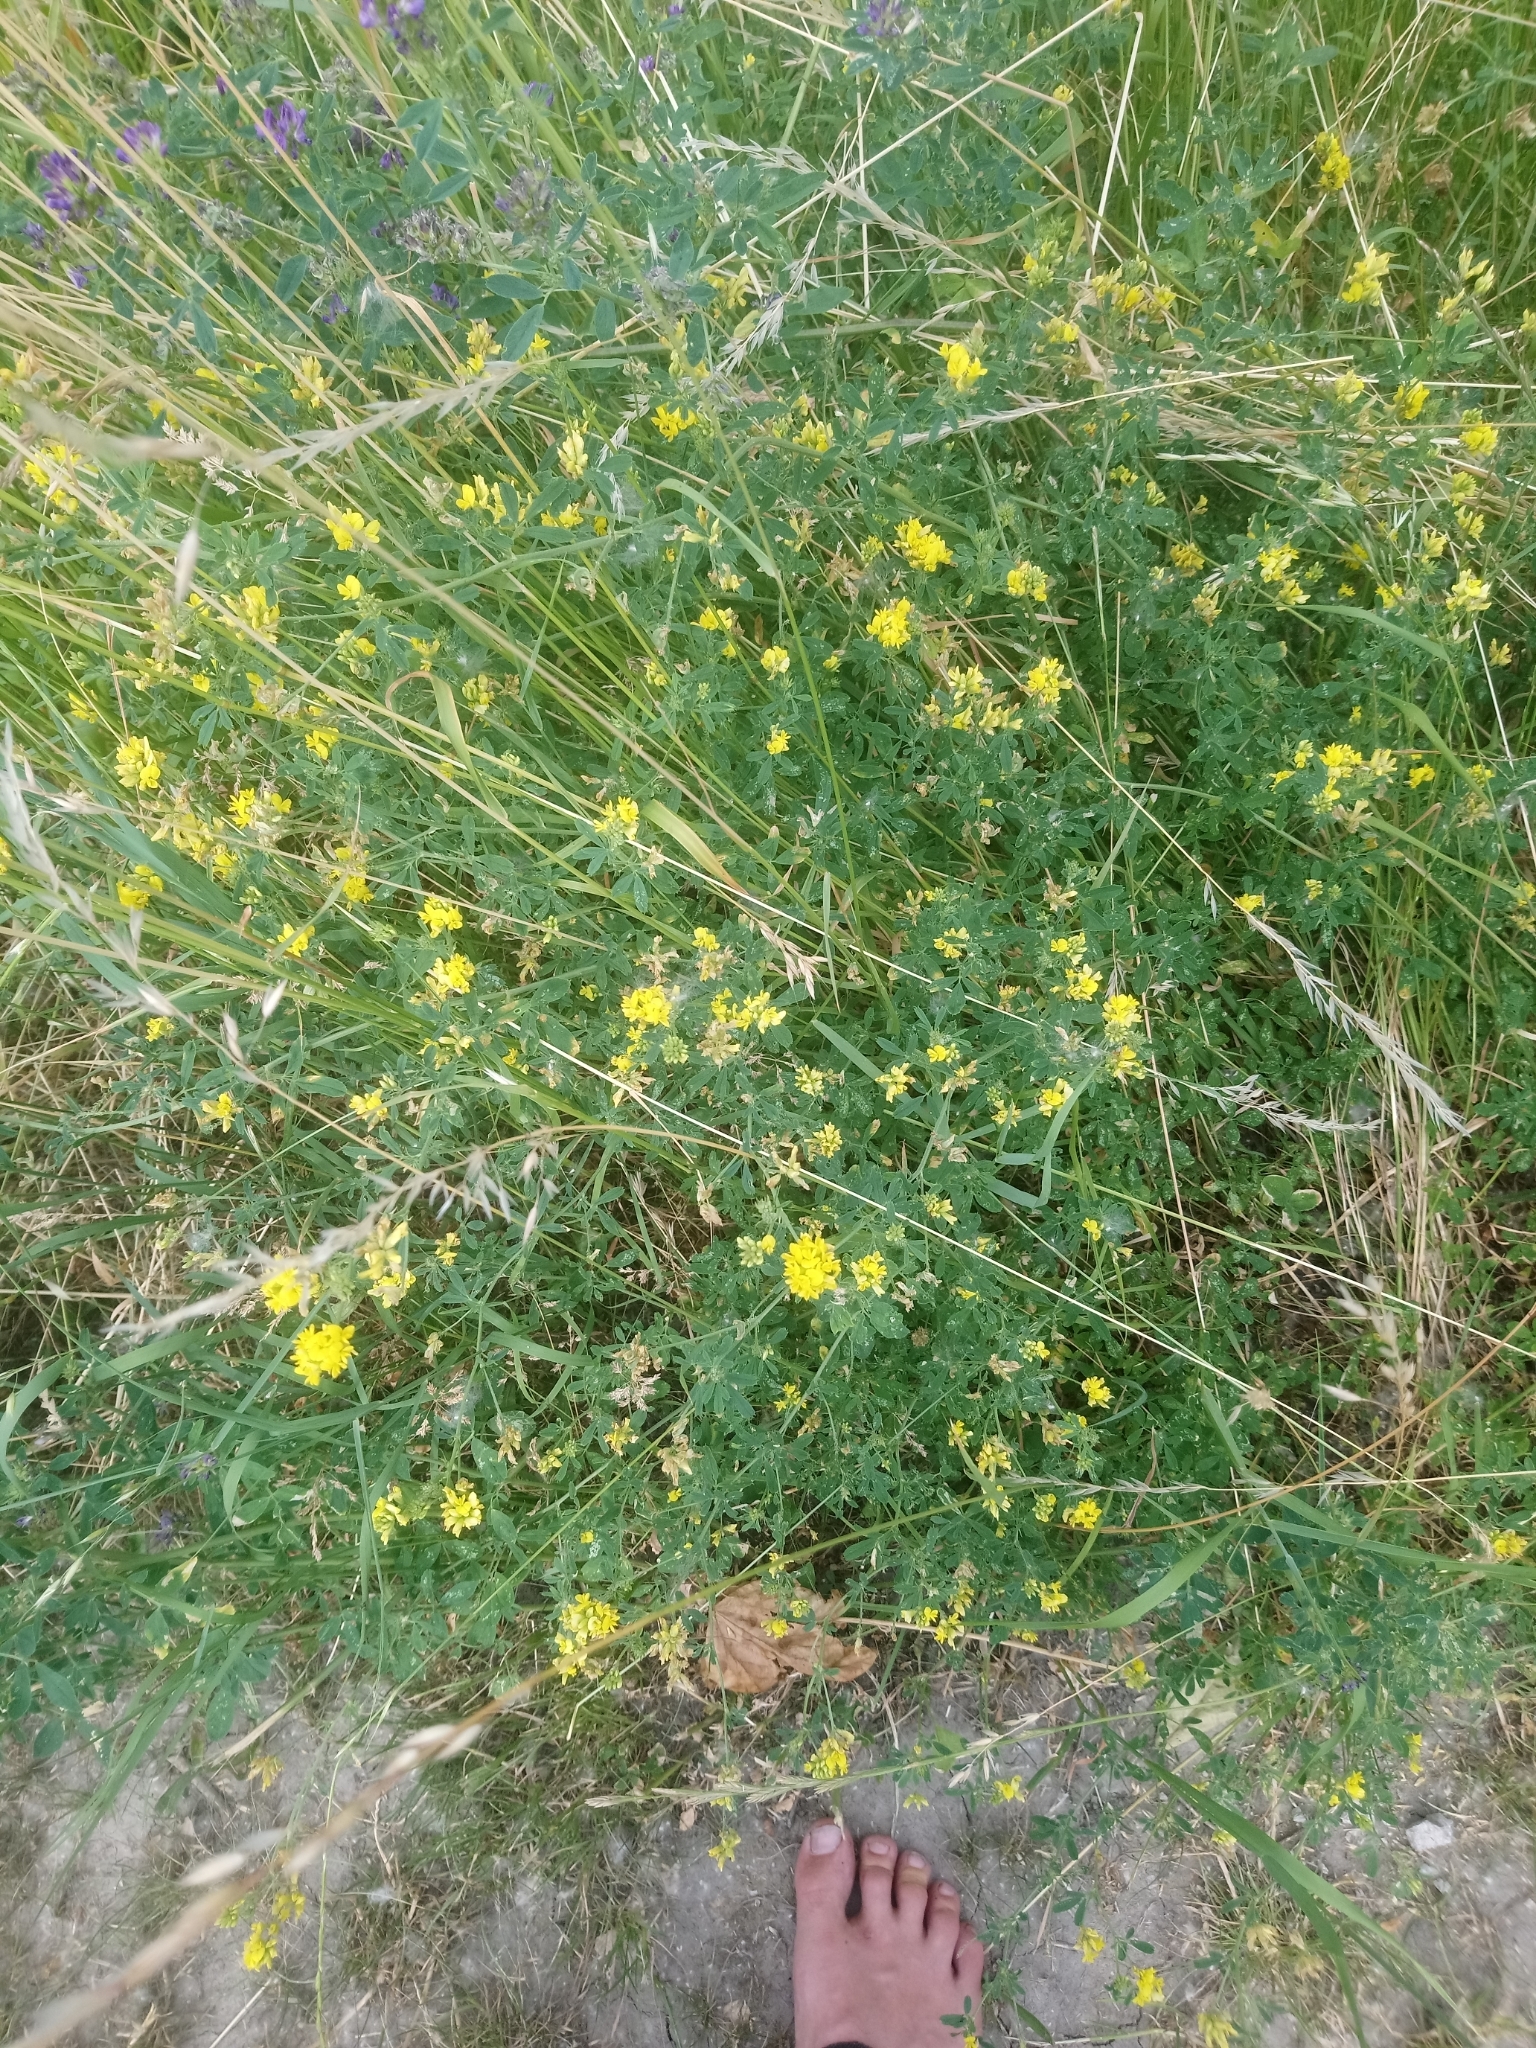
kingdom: Plantae
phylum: Tracheophyta
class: Magnoliopsida
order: Fabales
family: Fabaceae
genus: Medicago
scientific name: Medicago falcata
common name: Sickle medick
